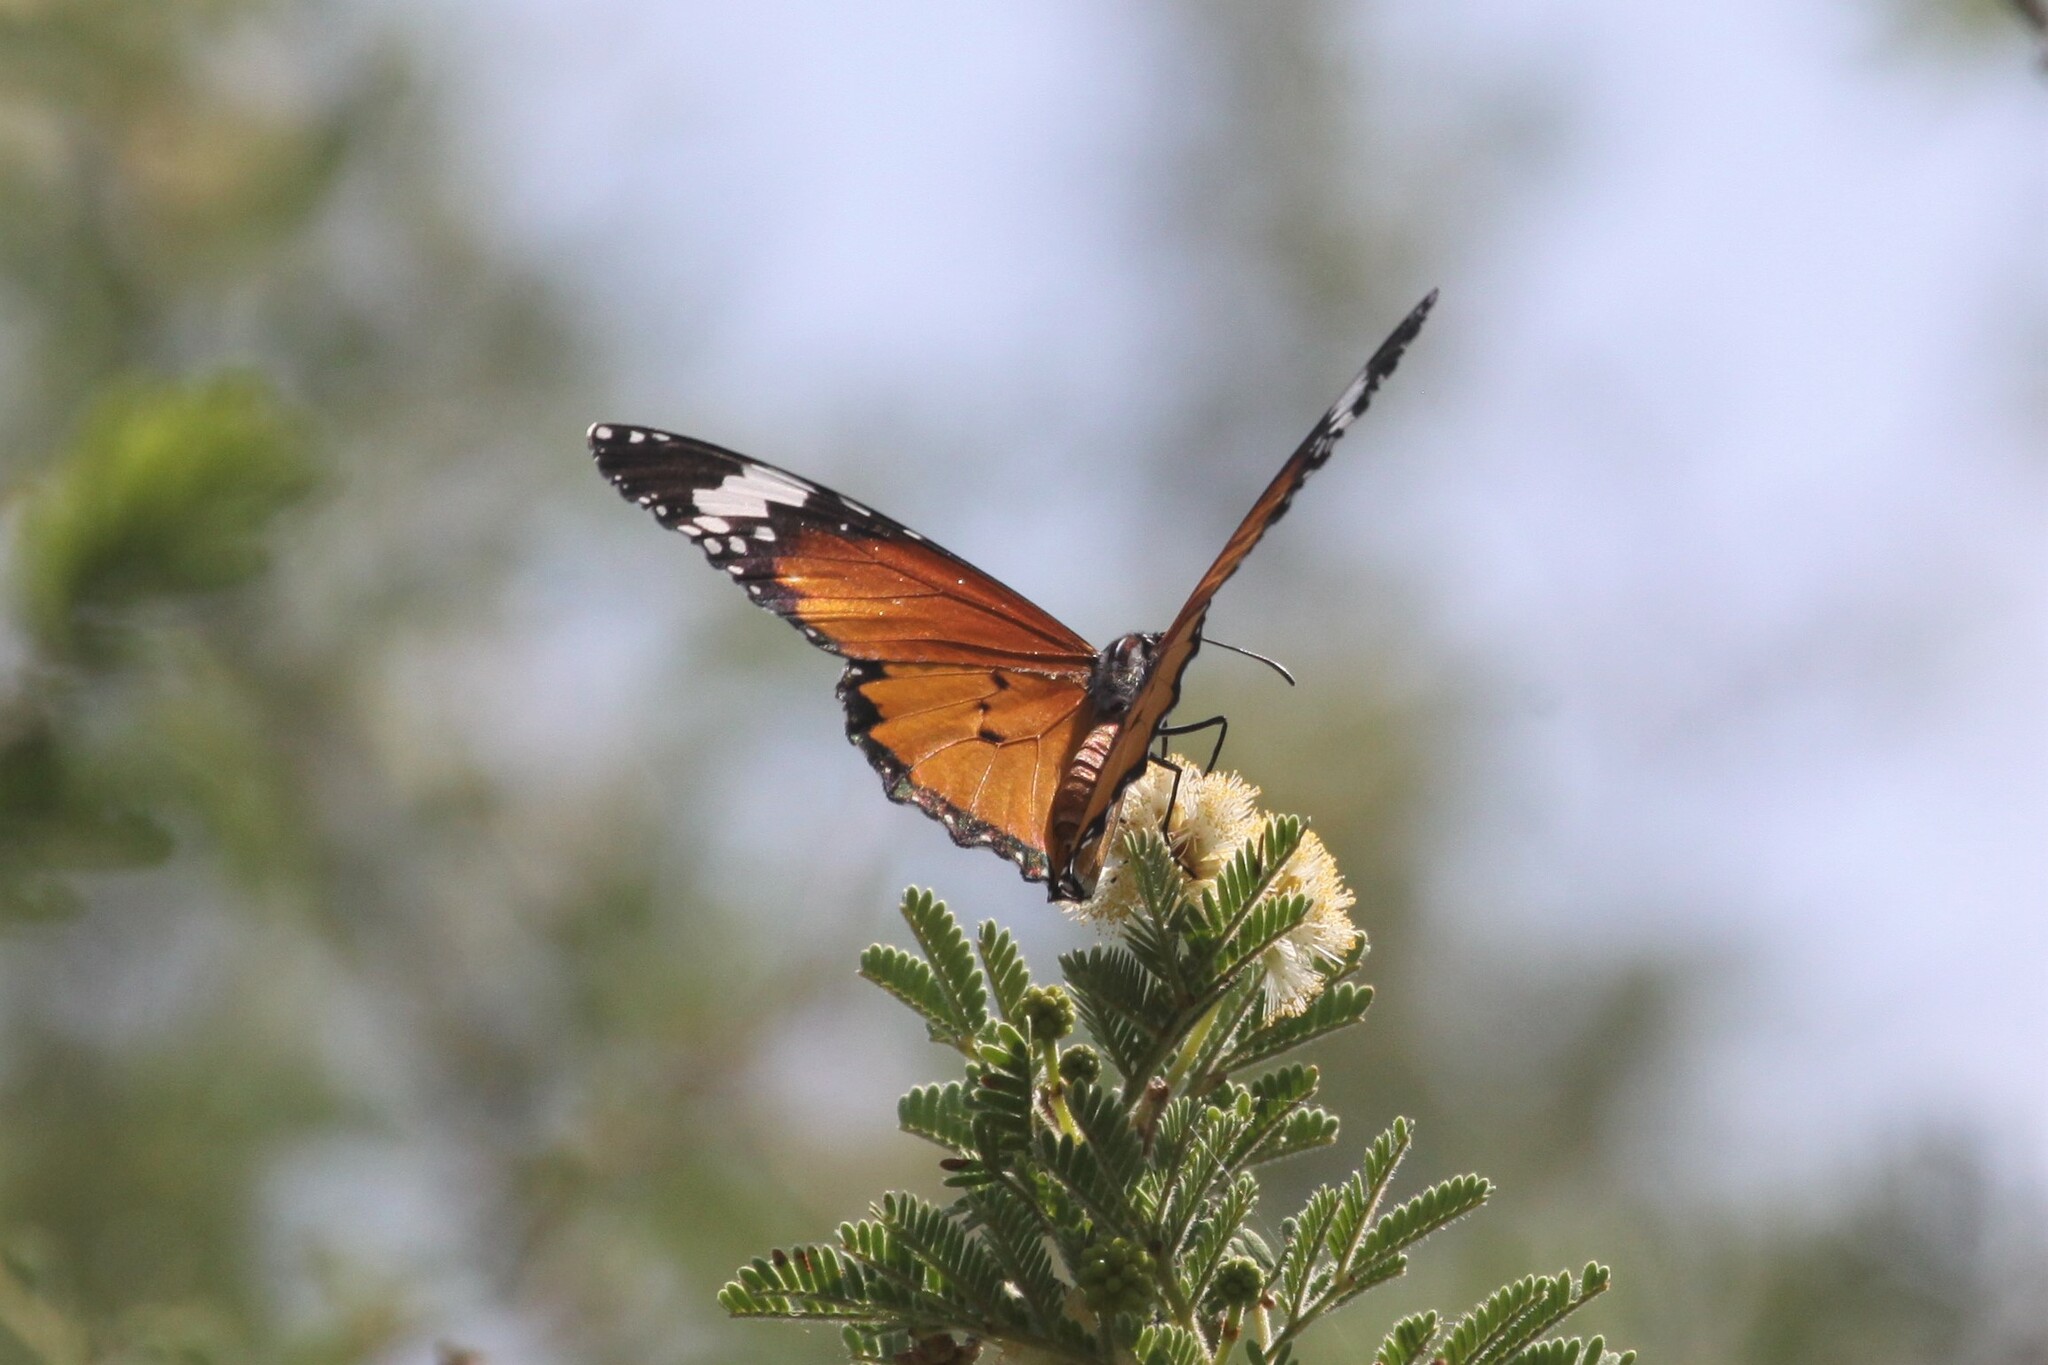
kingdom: Animalia
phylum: Arthropoda
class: Insecta
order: Lepidoptera
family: Nymphalidae
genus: Danaus
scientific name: Danaus chrysippus
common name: Plain tiger
